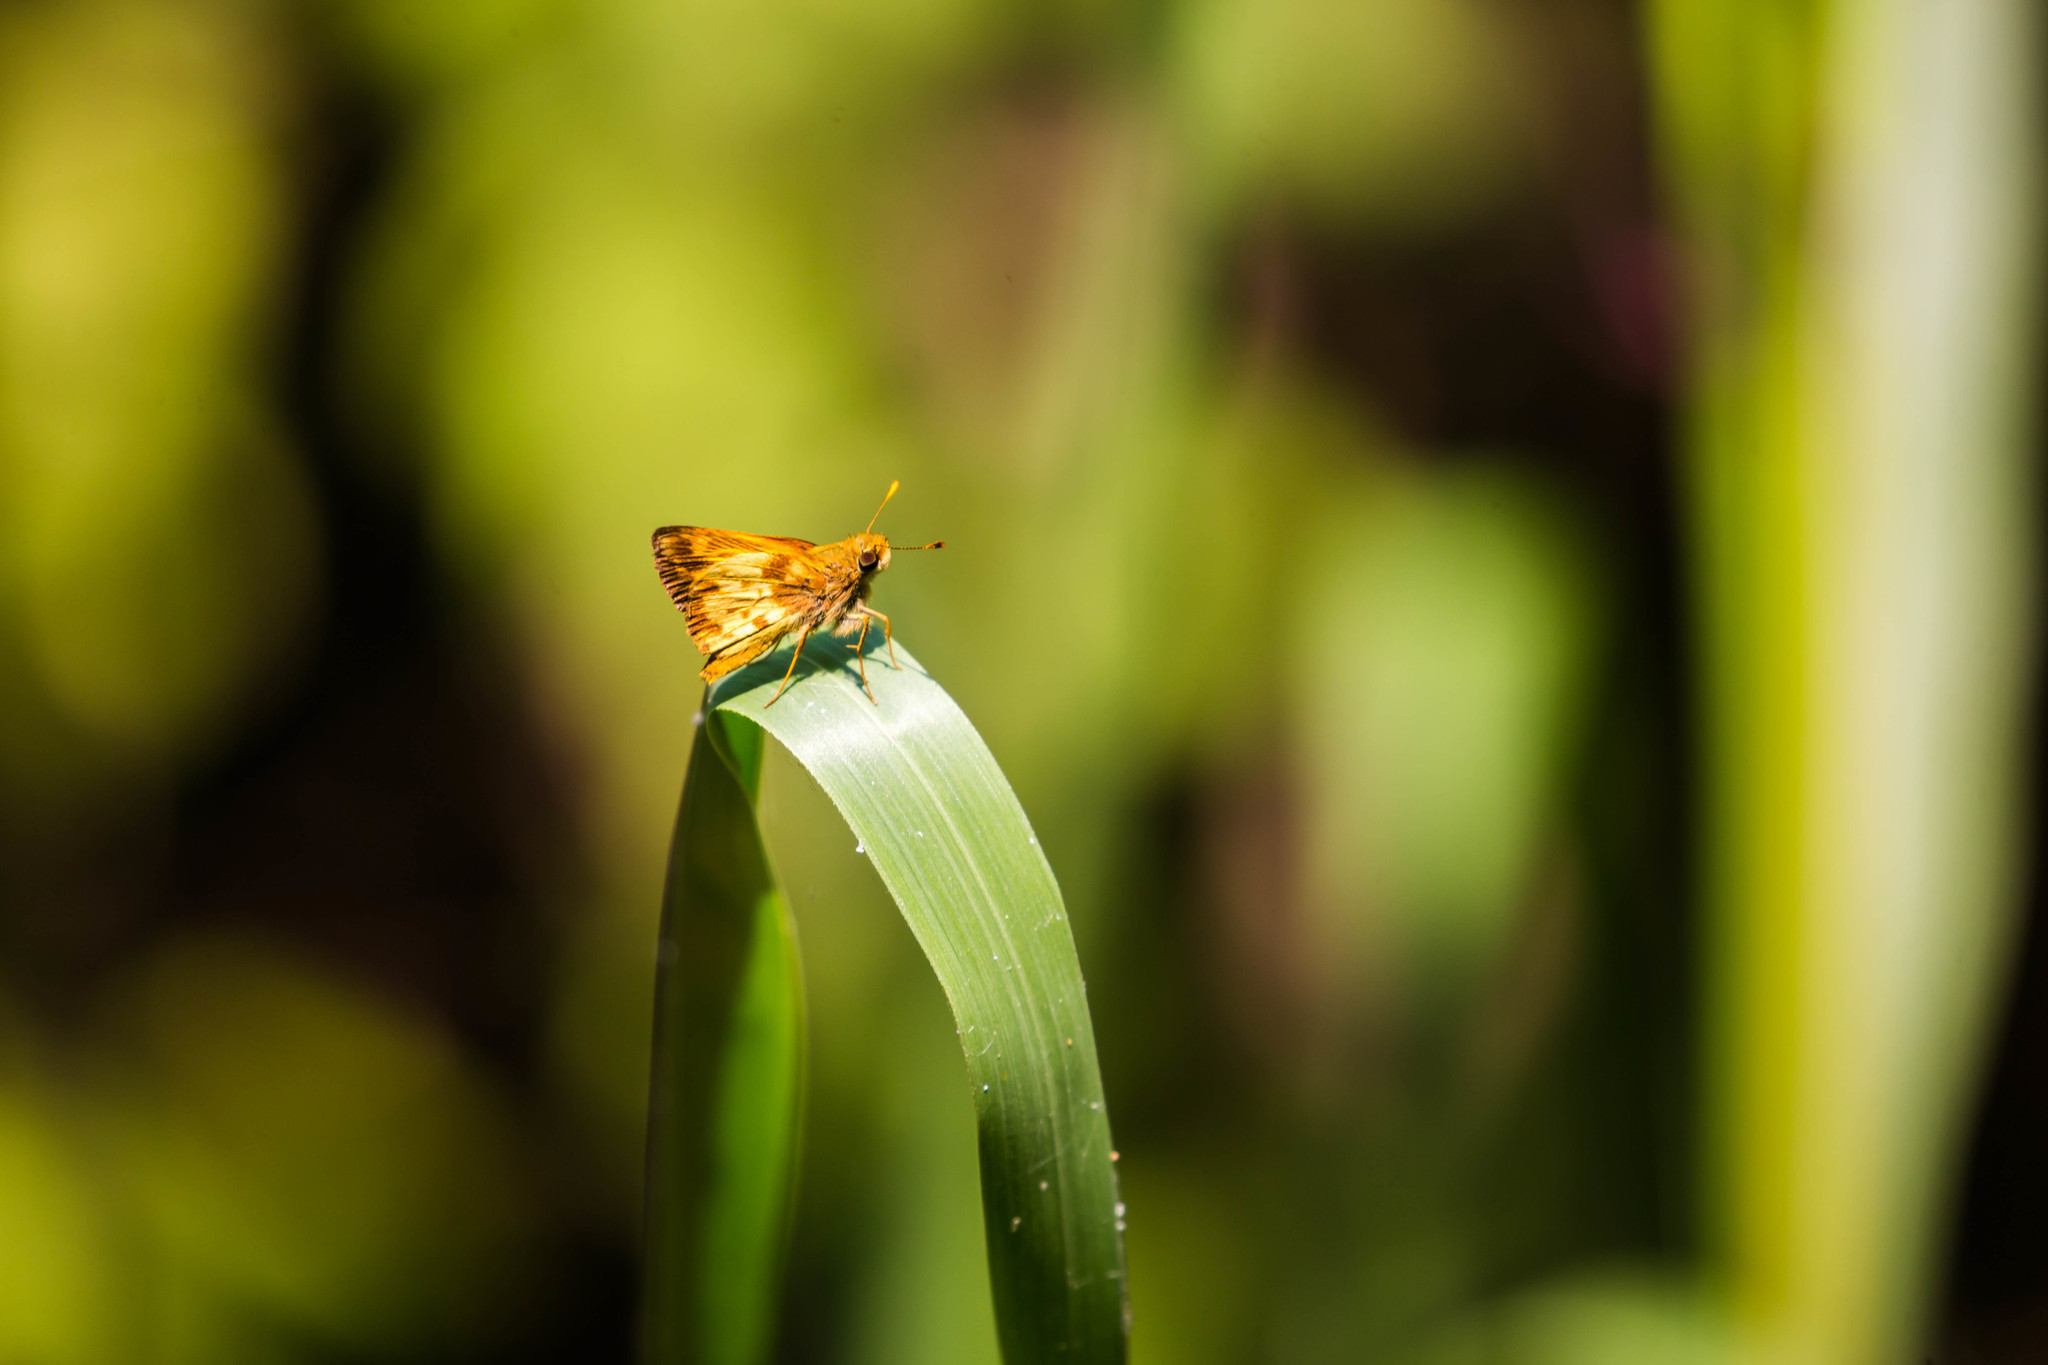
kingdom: Animalia
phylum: Arthropoda
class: Insecta
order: Lepidoptera
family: Hesperiidae
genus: Lon
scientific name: Lon zabulon
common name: Zabulon skipper
